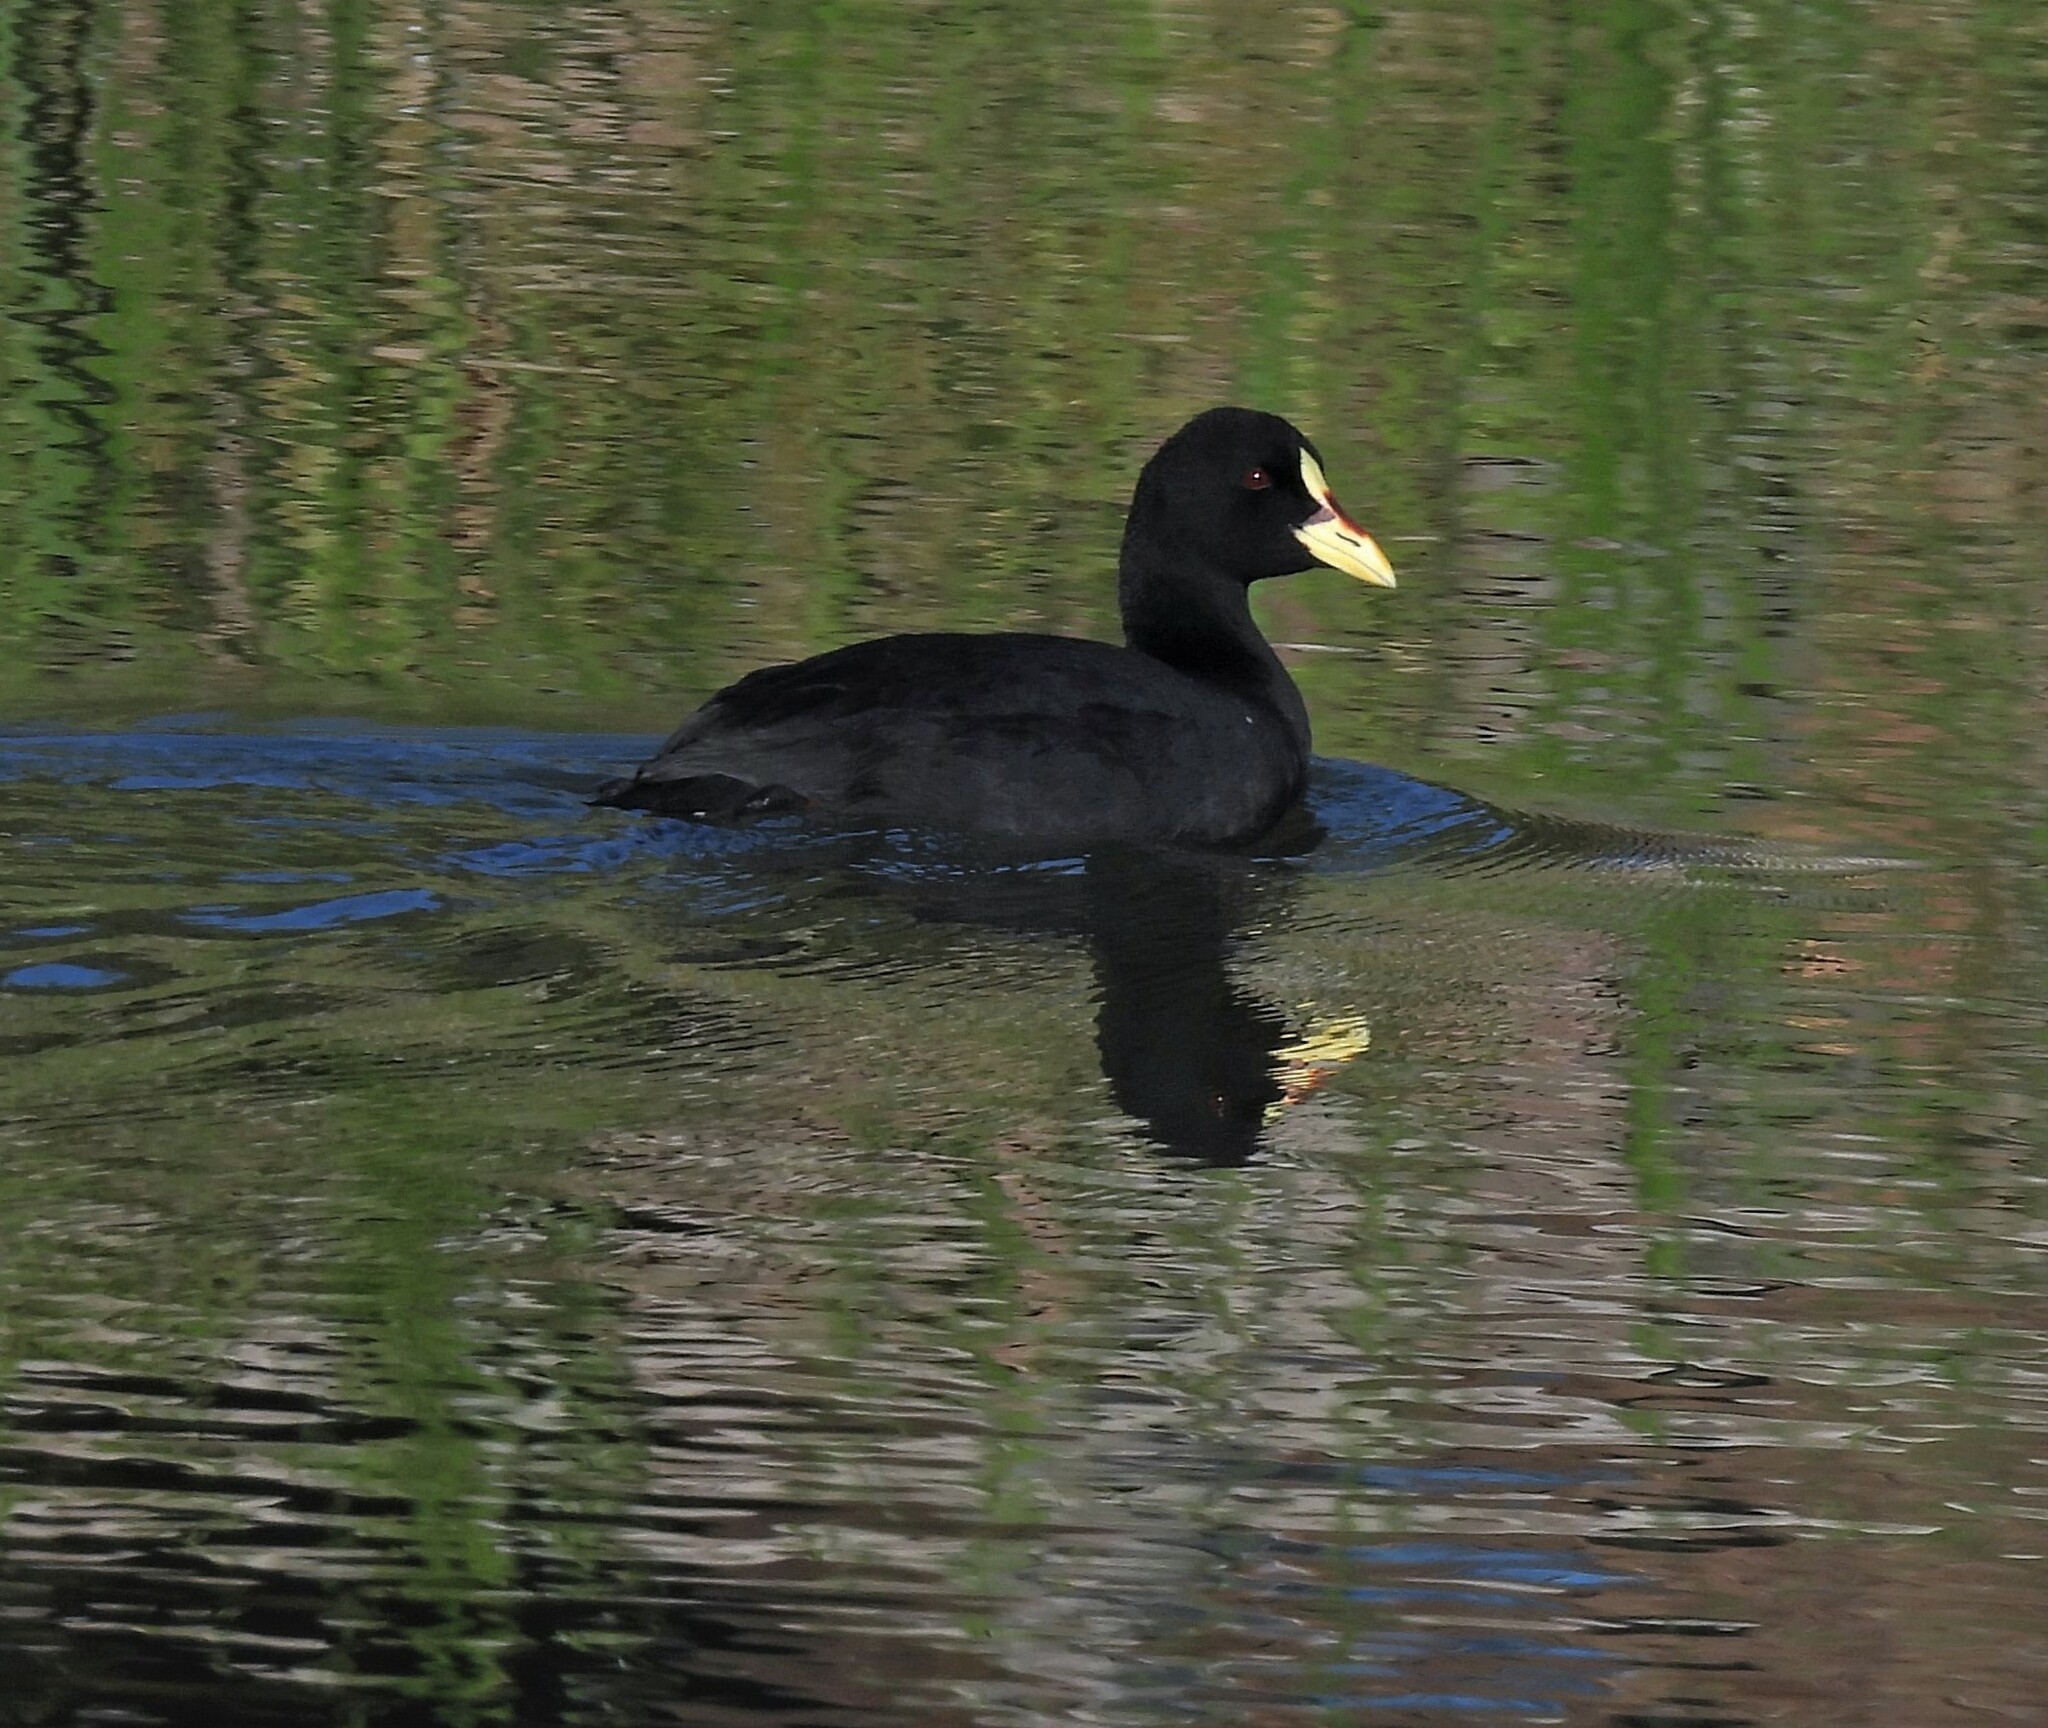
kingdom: Animalia
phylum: Chordata
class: Aves
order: Gruiformes
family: Rallidae
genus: Fulica
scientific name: Fulica armillata
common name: Red-gartered coot
